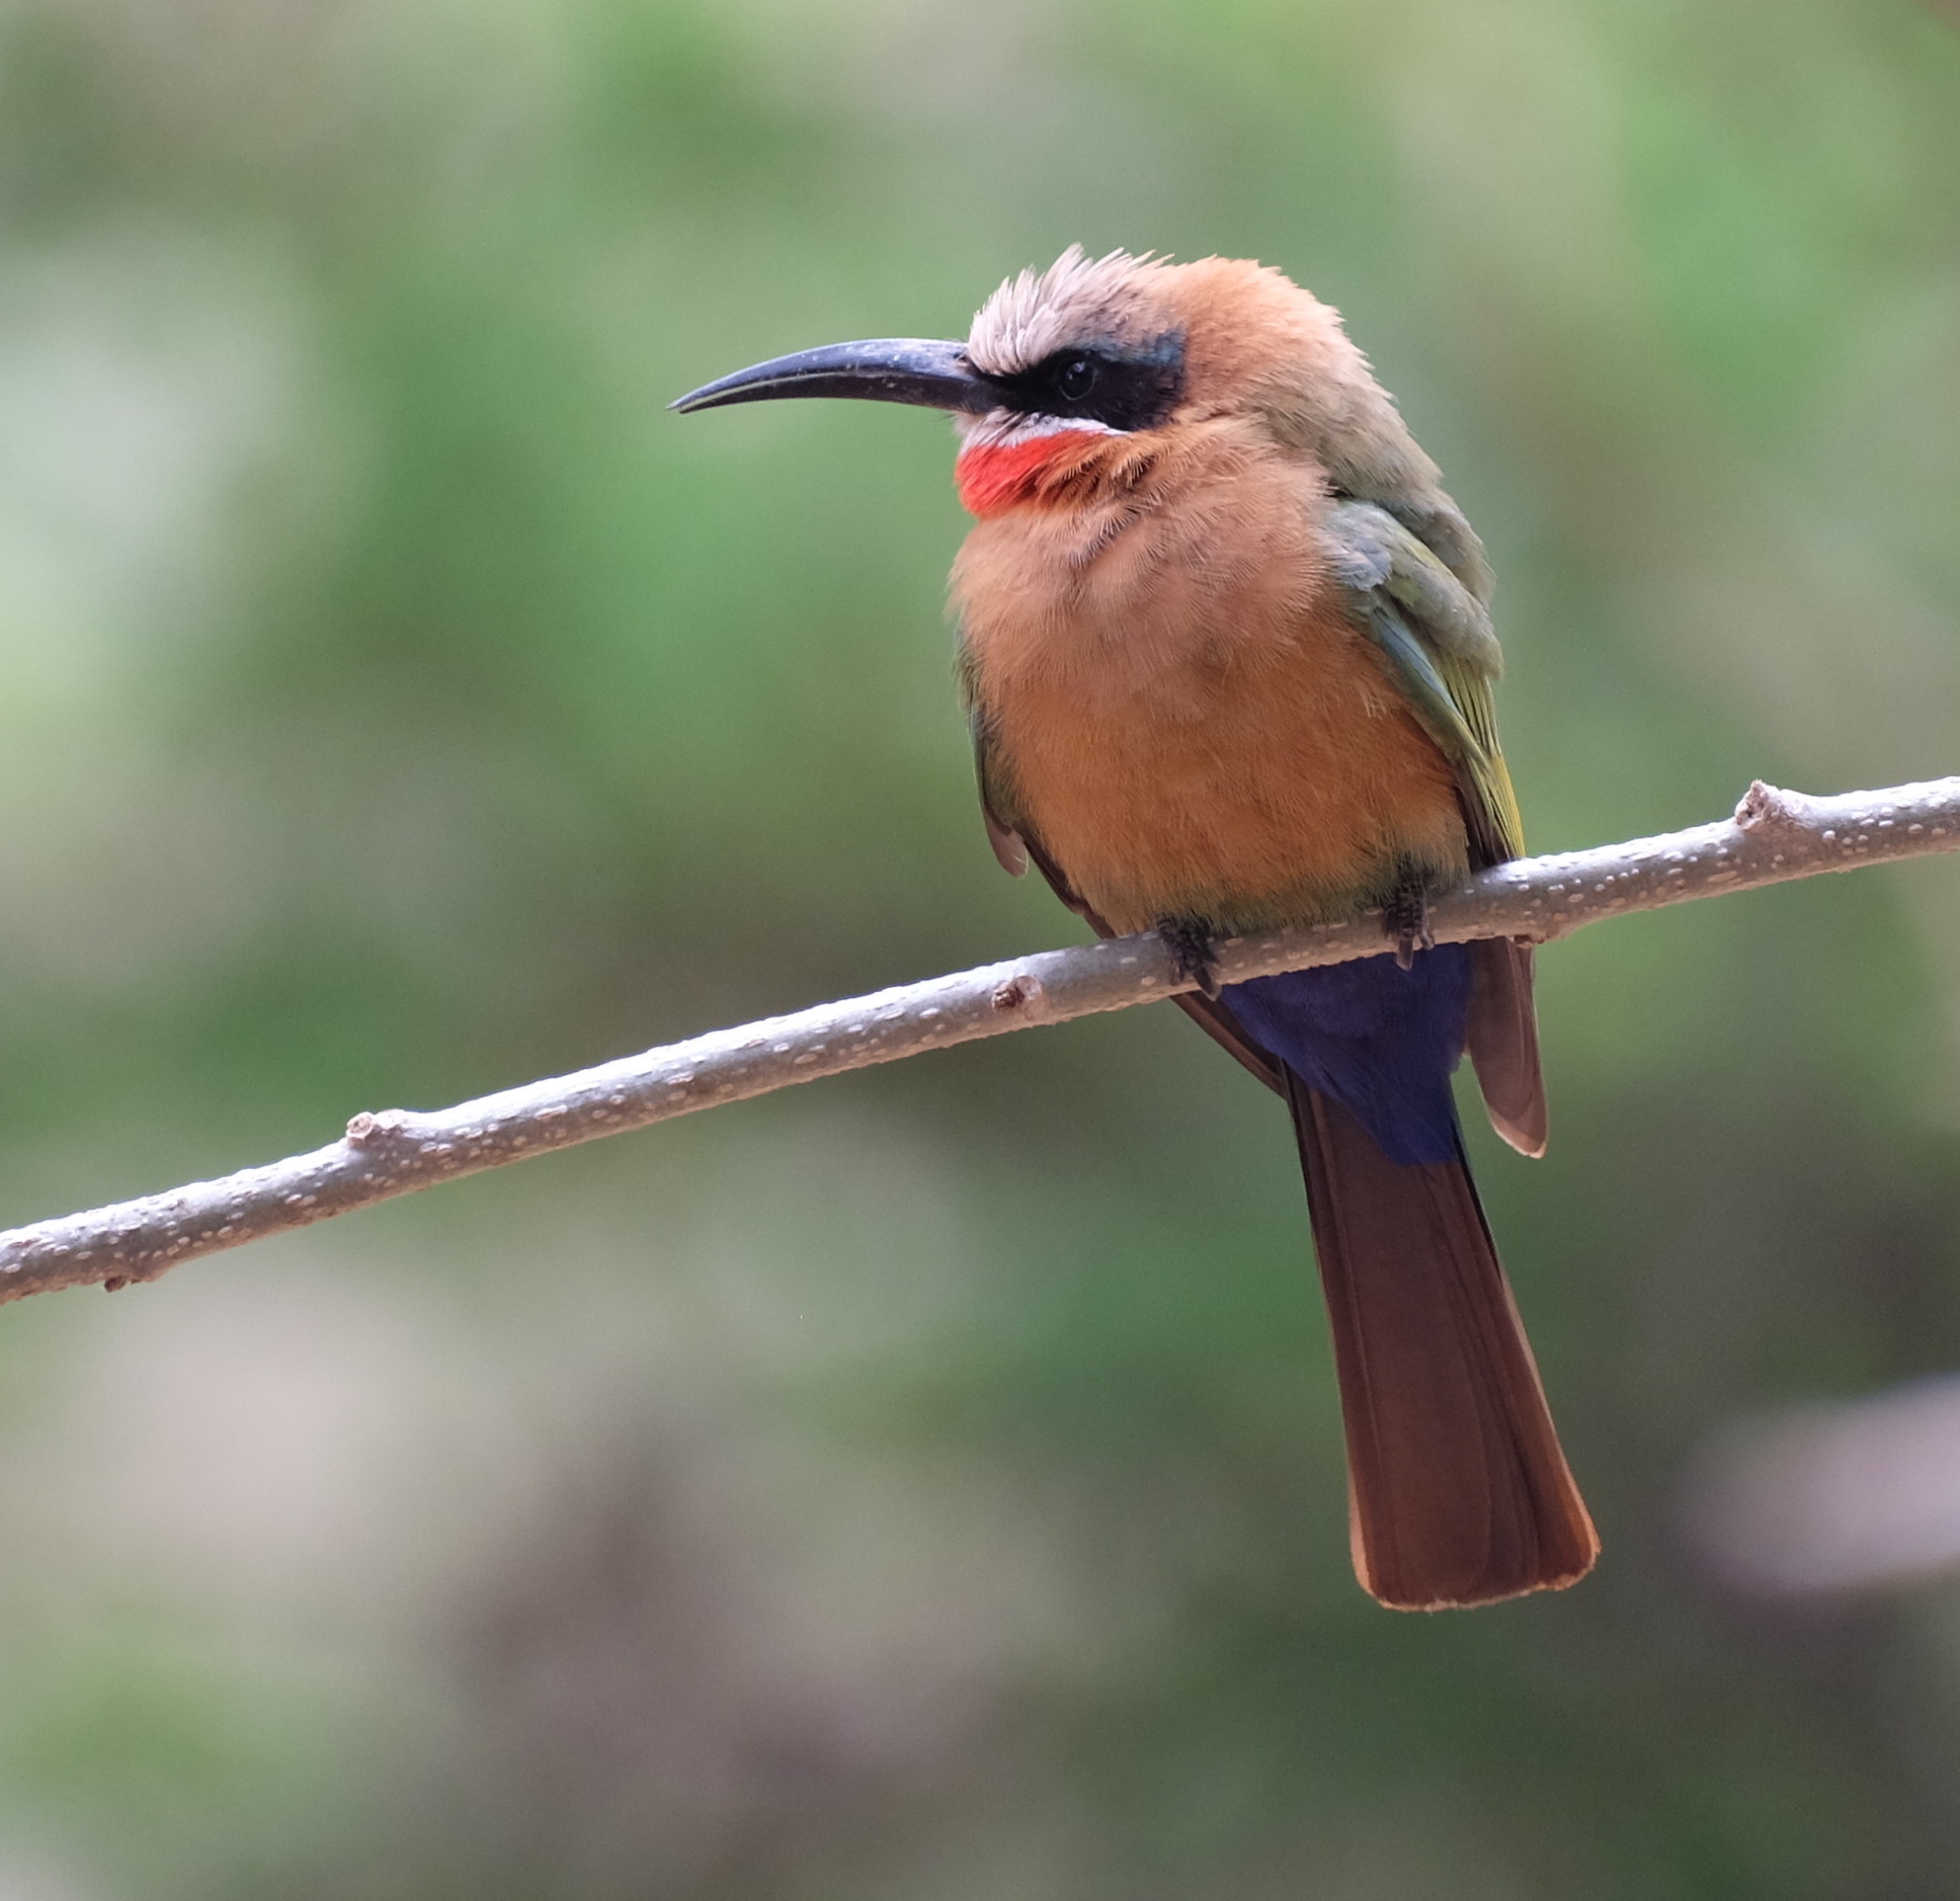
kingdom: Animalia
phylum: Chordata
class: Aves
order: Coraciiformes
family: Meropidae
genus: Merops
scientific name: Merops bullockoides
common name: White-fronted bee-eater
